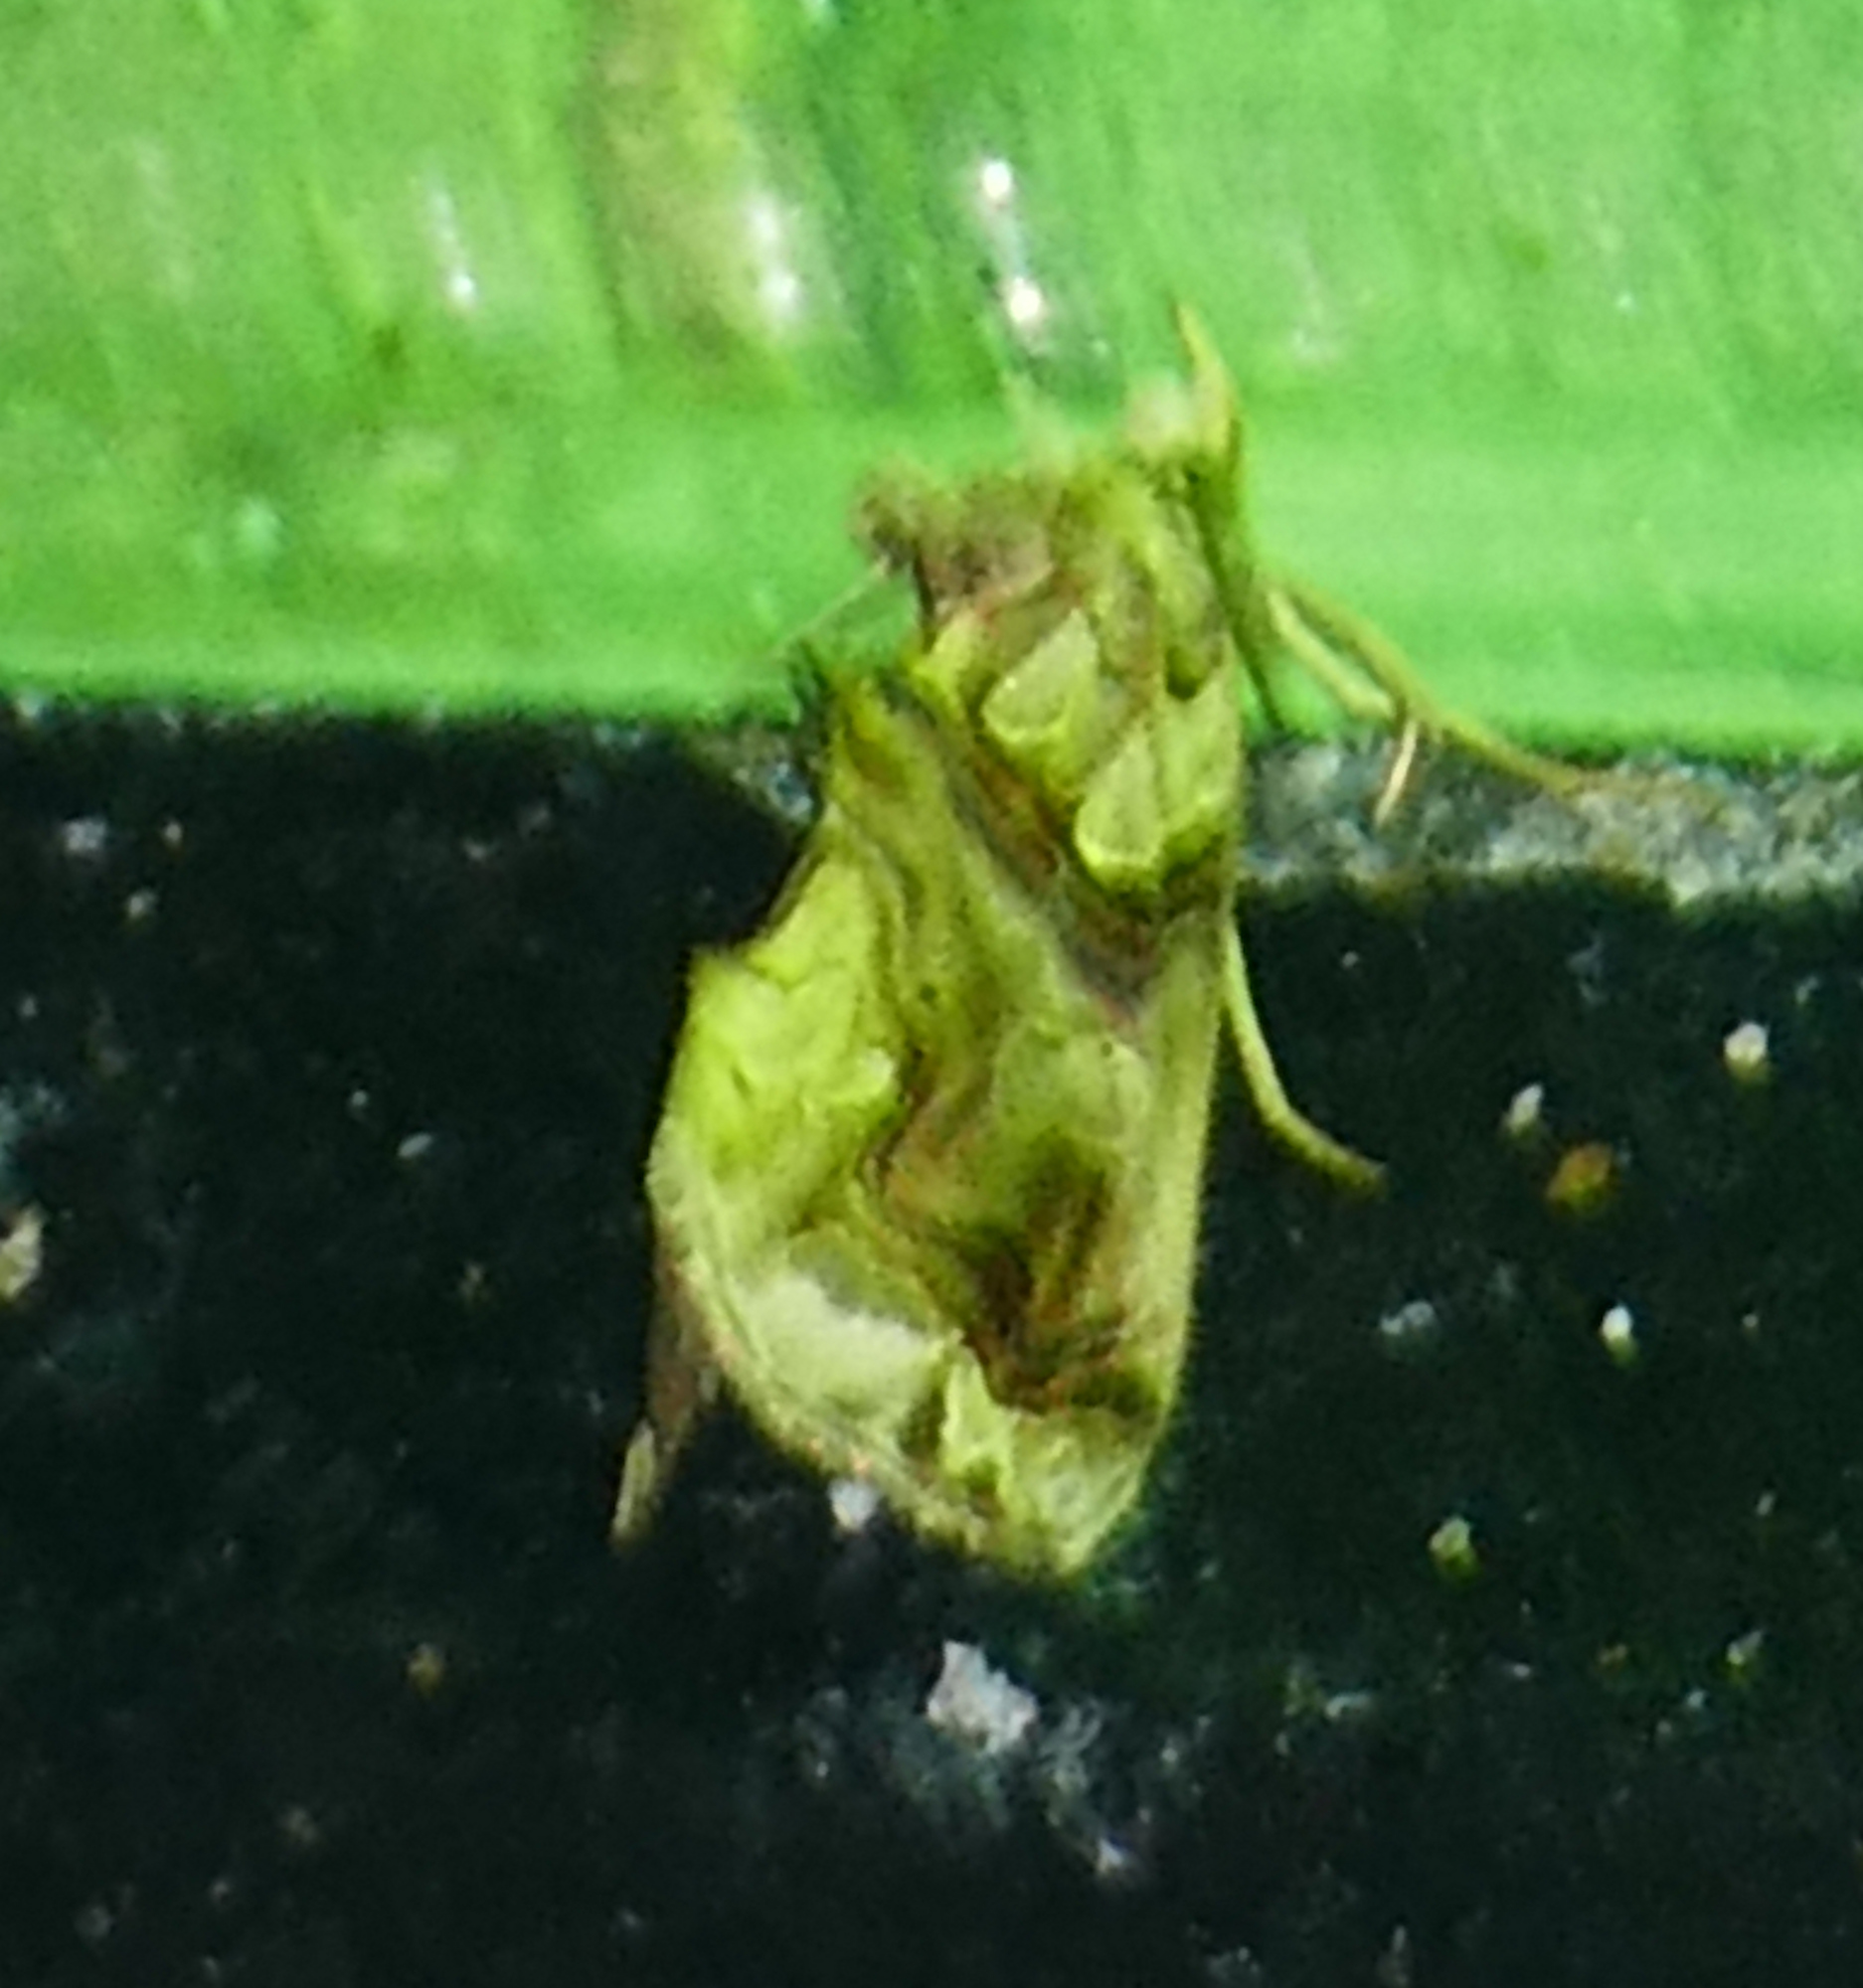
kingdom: Animalia
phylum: Arthropoda
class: Insecta
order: Lepidoptera
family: Erebidae
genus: Plusiodonta
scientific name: Plusiodonta compressipalpis
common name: Moonseed moth
